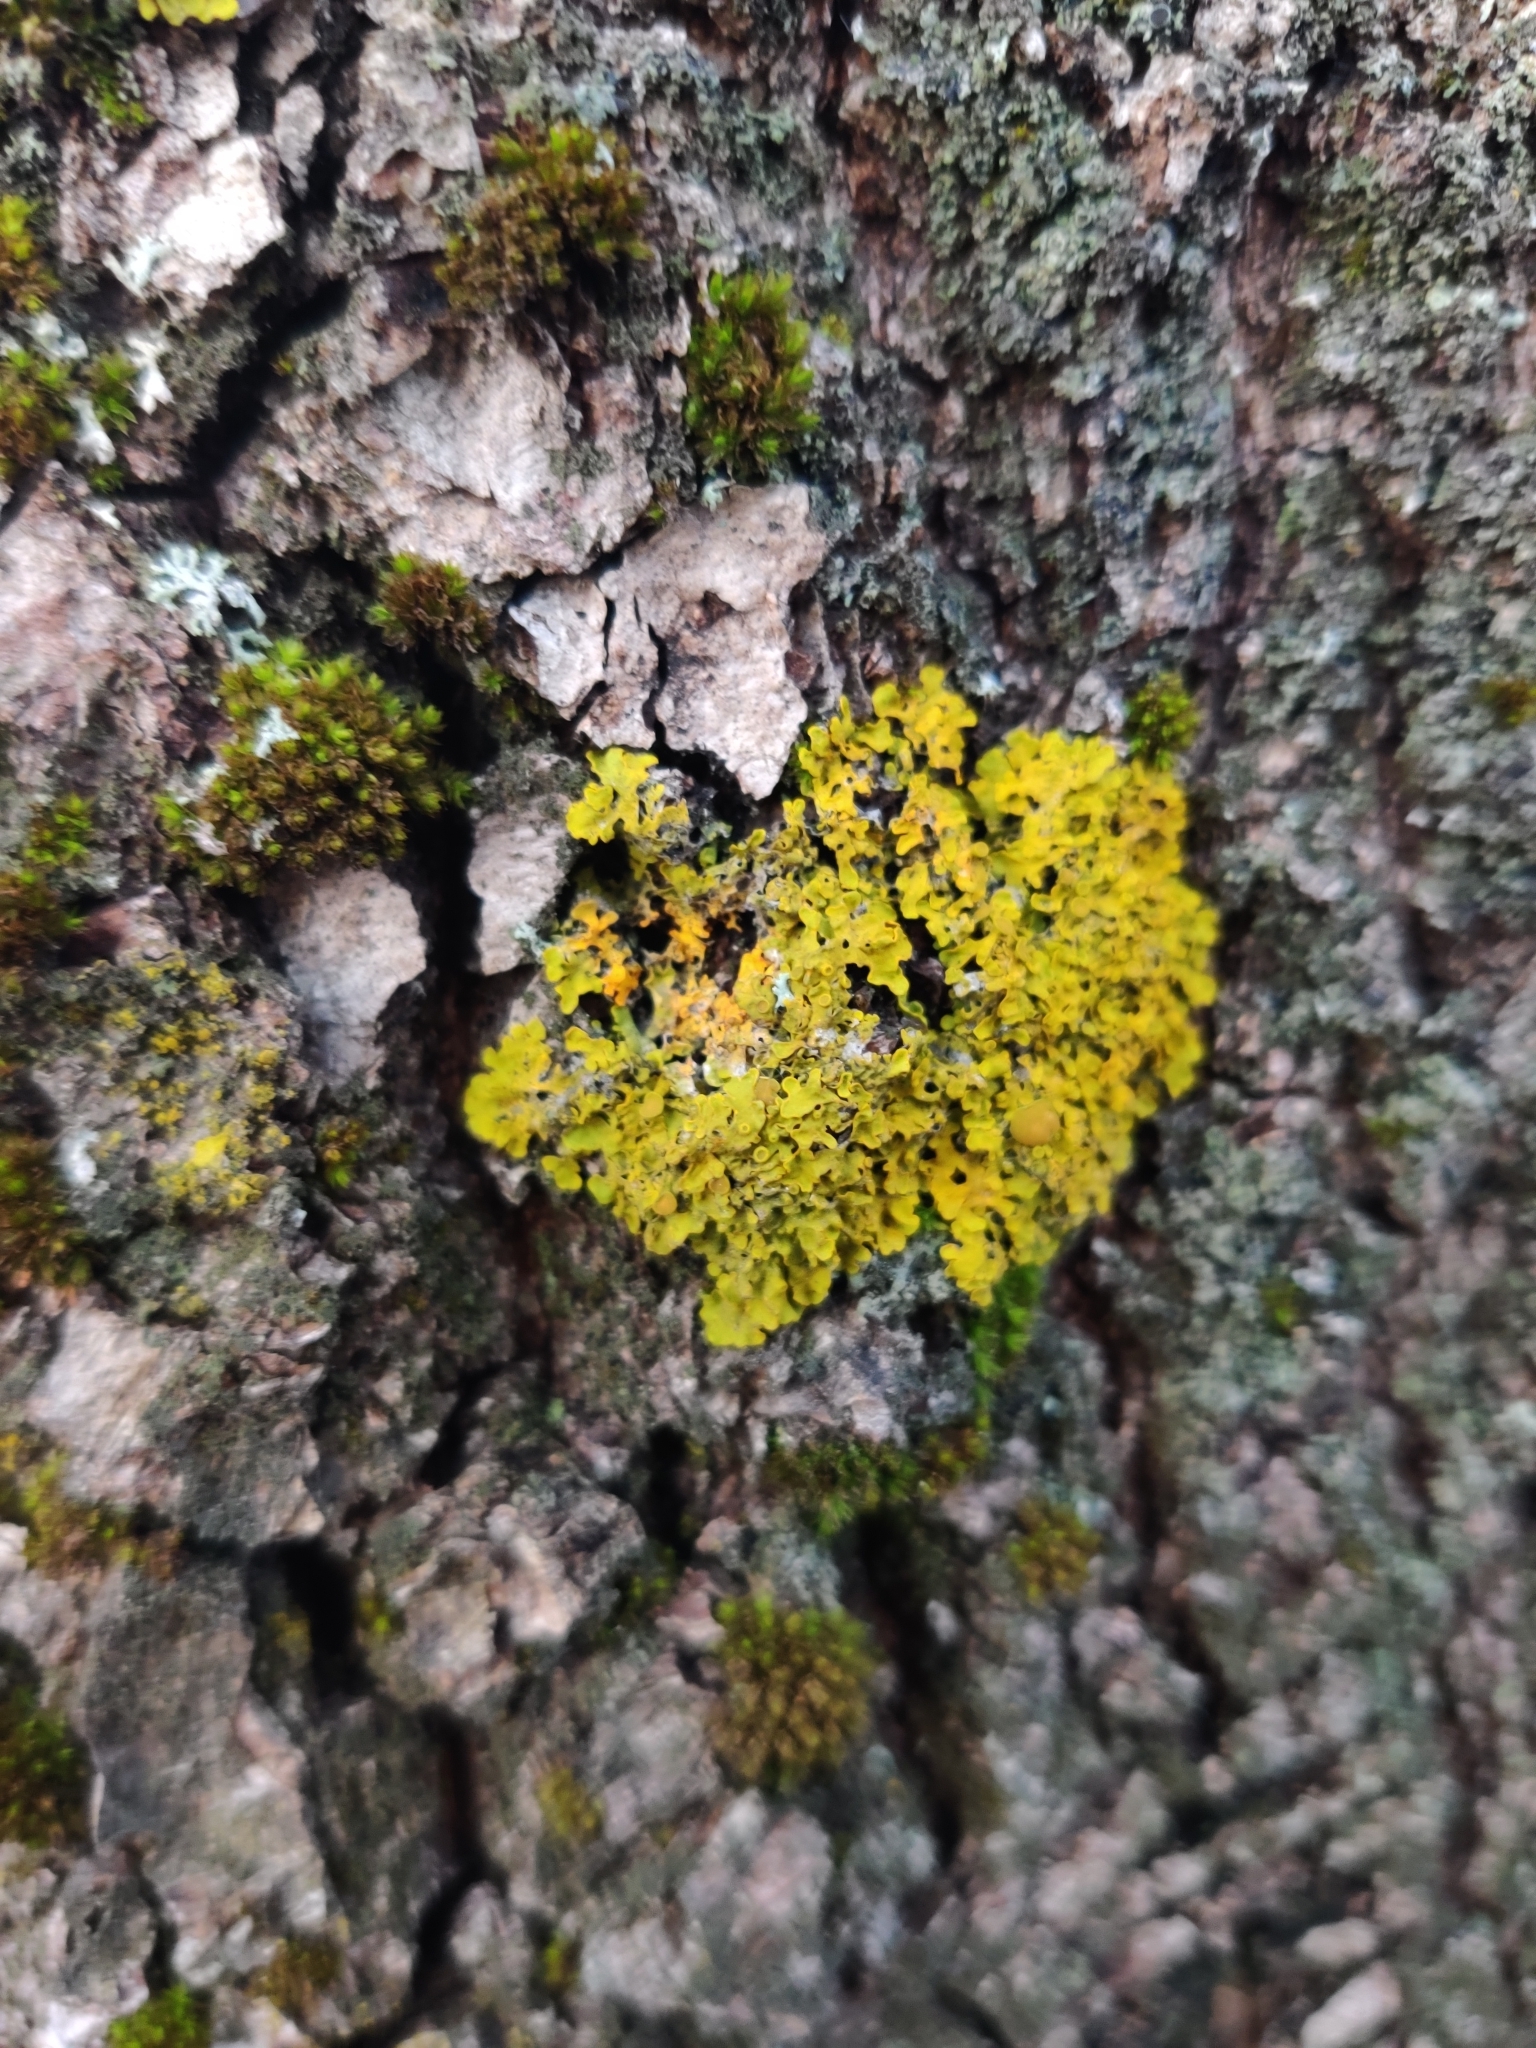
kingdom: Fungi
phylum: Ascomycota
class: Lecanoromycetes
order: Teloschistales
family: Teloschistaceae
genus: Xanthoria
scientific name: Xanthoria parietina
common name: Common orange lichen
